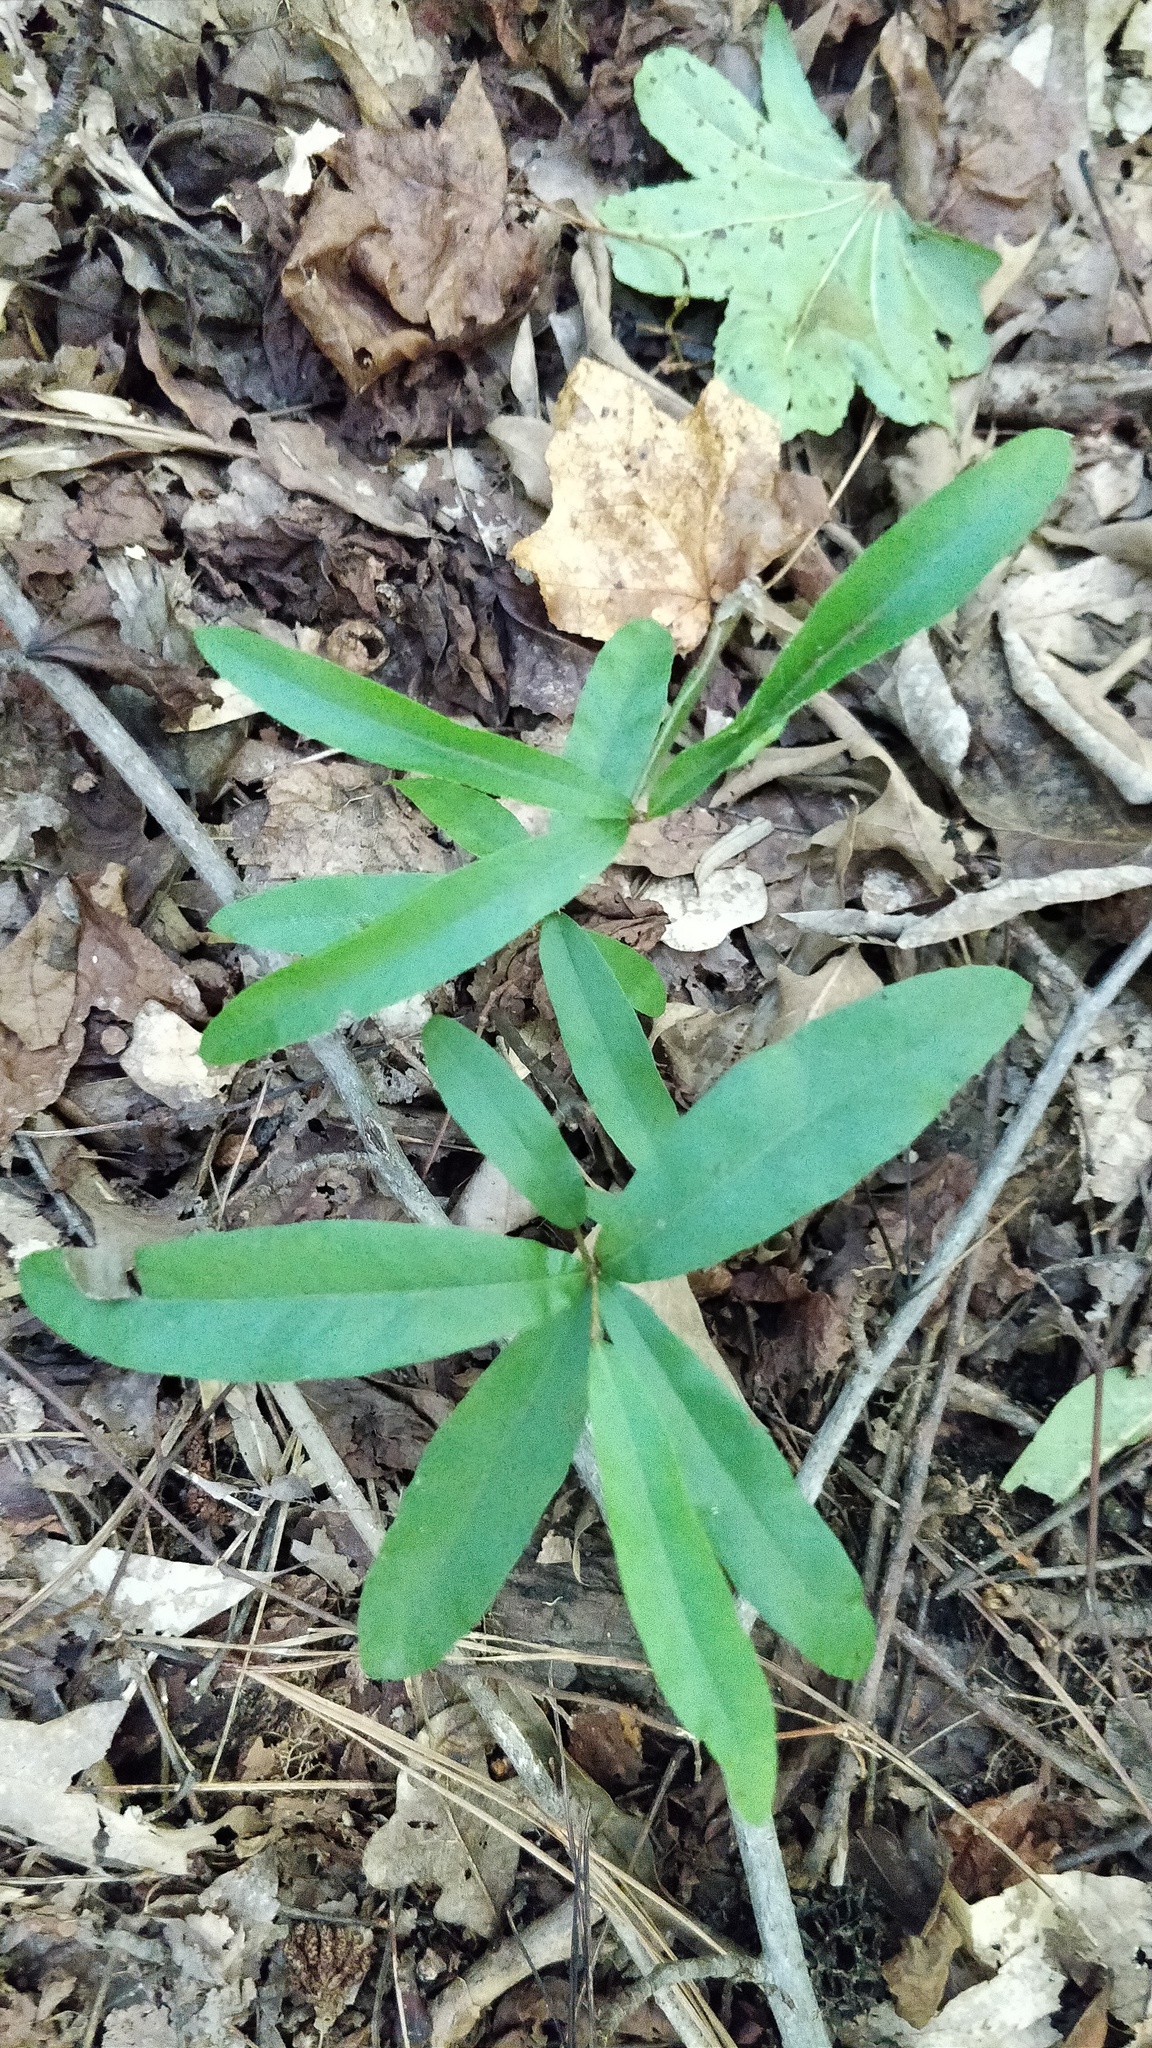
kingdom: Plantae
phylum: Tracheophyta
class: Magnoliopsida
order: Fagales
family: Fagaceae
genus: Quercus
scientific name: Quercus phellos
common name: Willow oak
